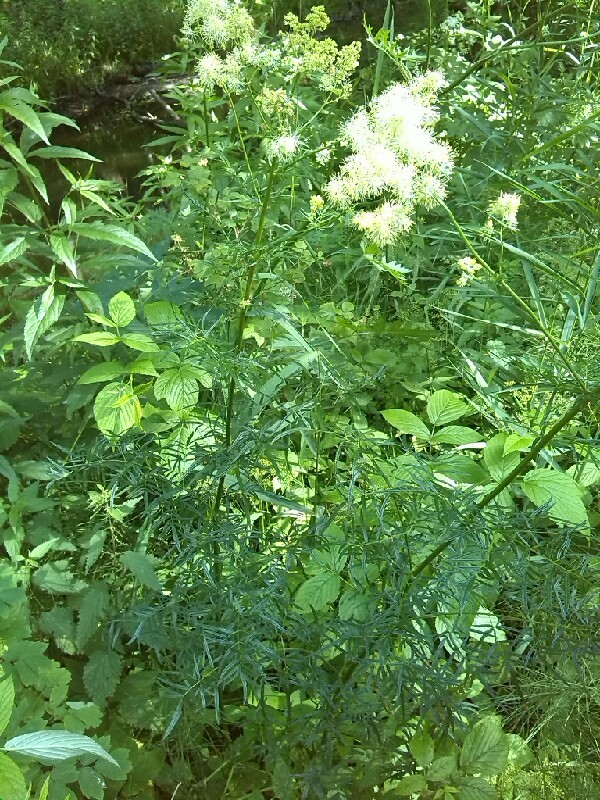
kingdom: Plantae
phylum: Tracheophyta
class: Magnoliopsida
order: Ranunculales
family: Ranunculaceae
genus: Thalictrum
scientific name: Thalictrum lucidum
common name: Shining meadow-rue
